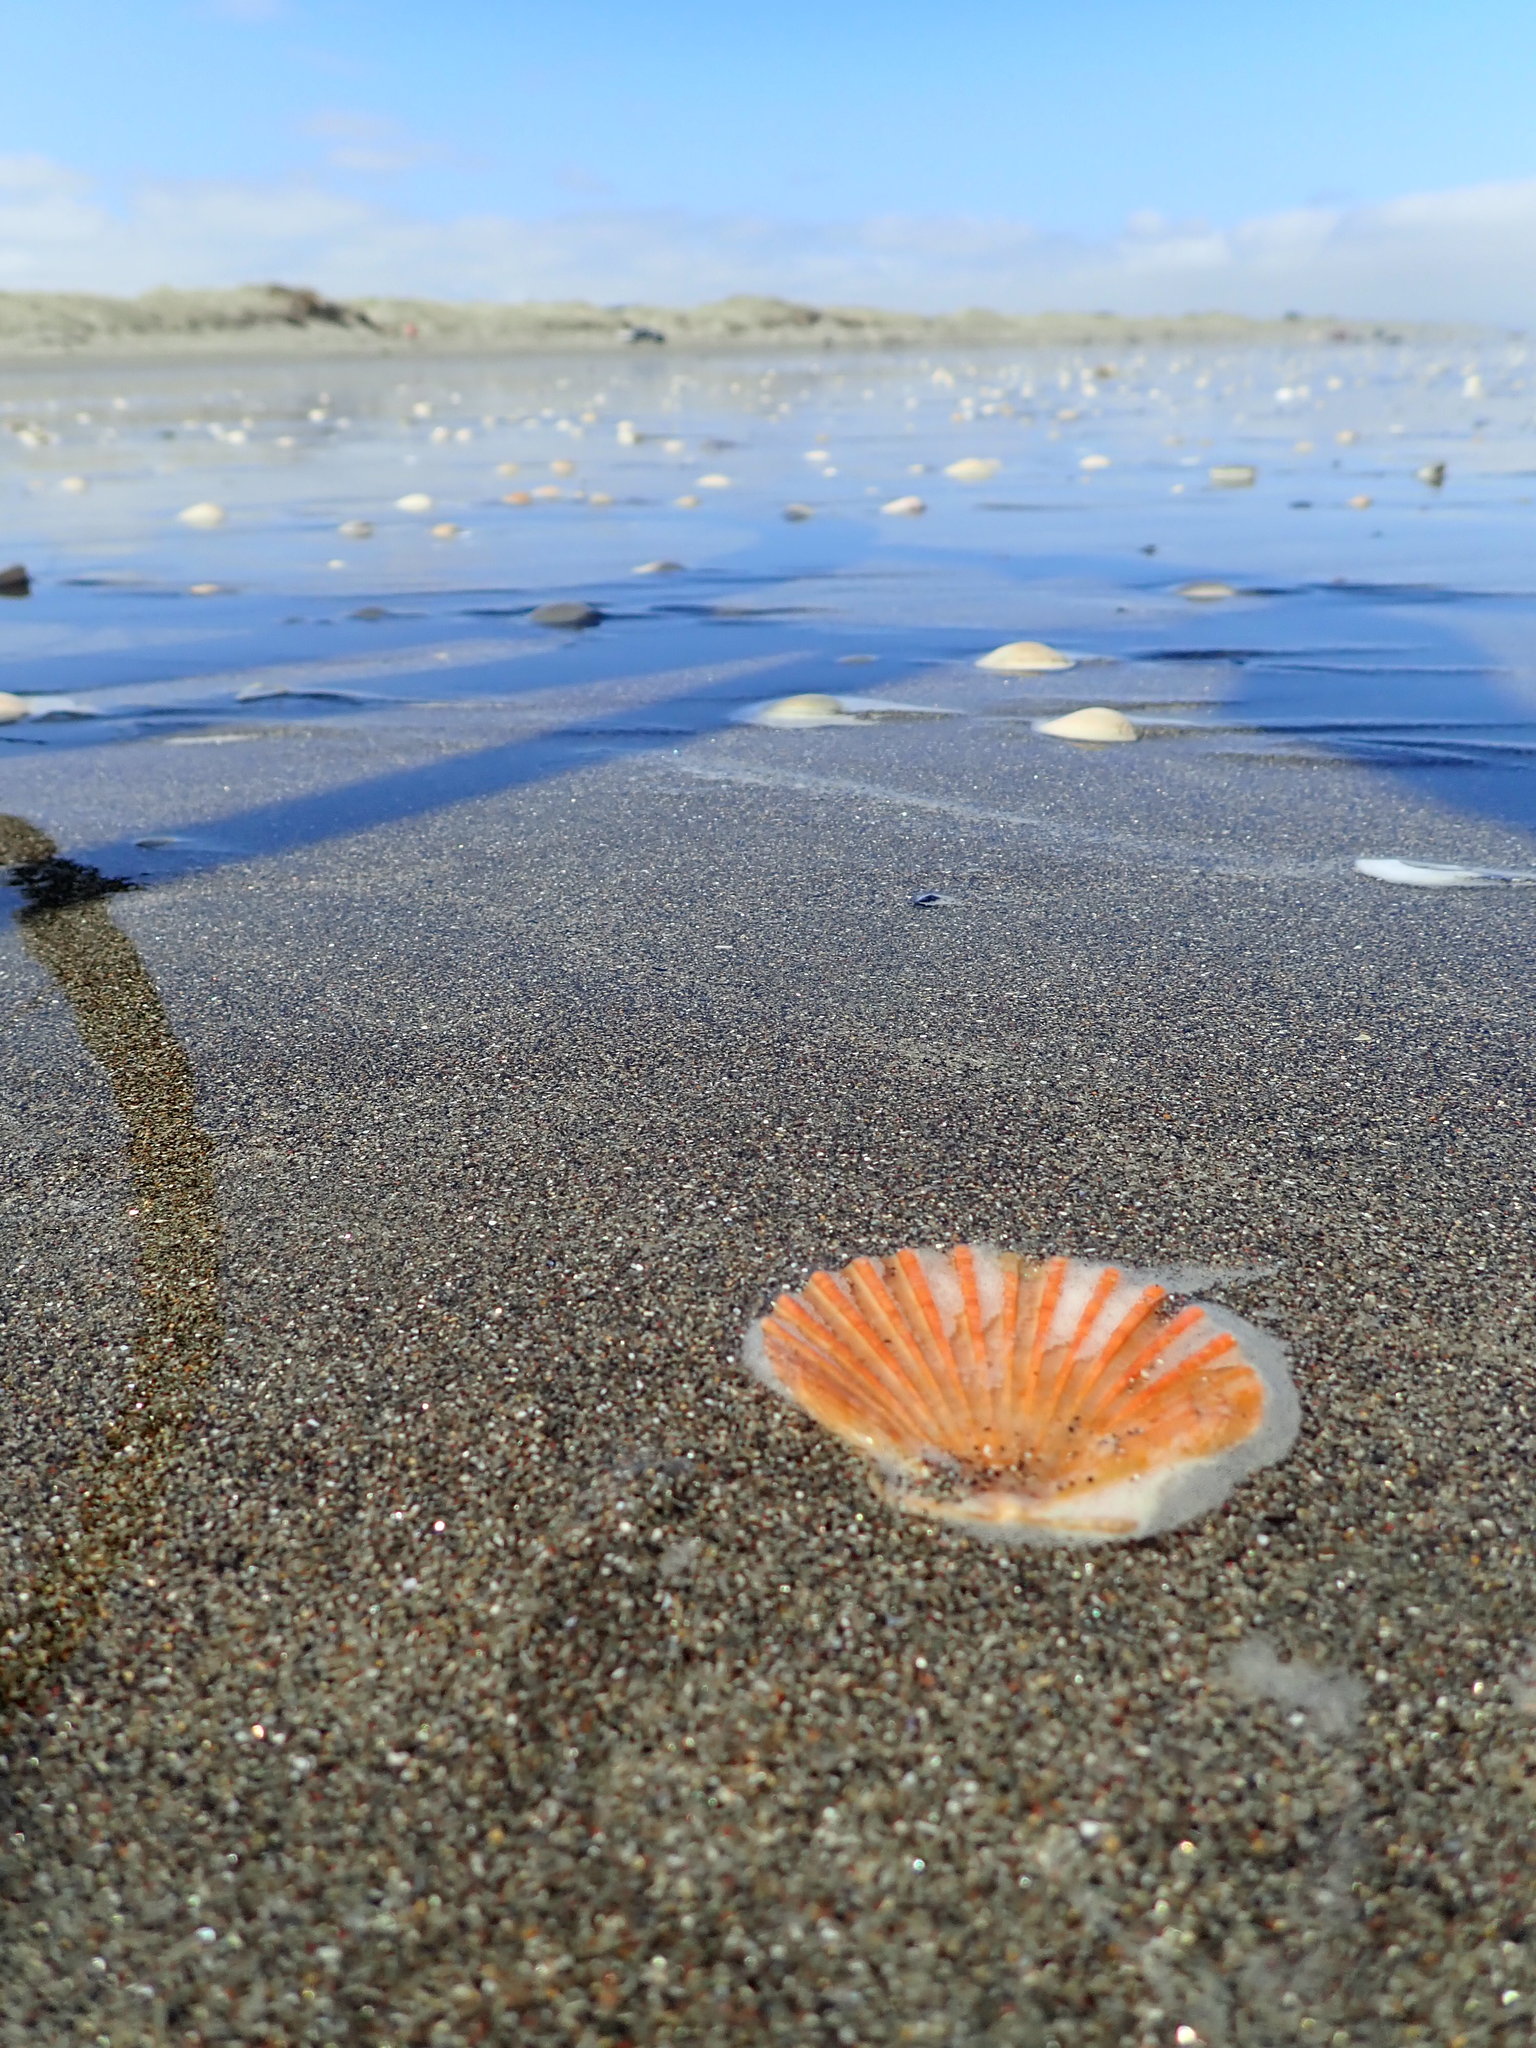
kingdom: Animalia
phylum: Mollusca
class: Bivalvia
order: Pectinida
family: Pectinidae
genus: Pecten
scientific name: Pecten novaezelandiae
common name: New zealand scallop
